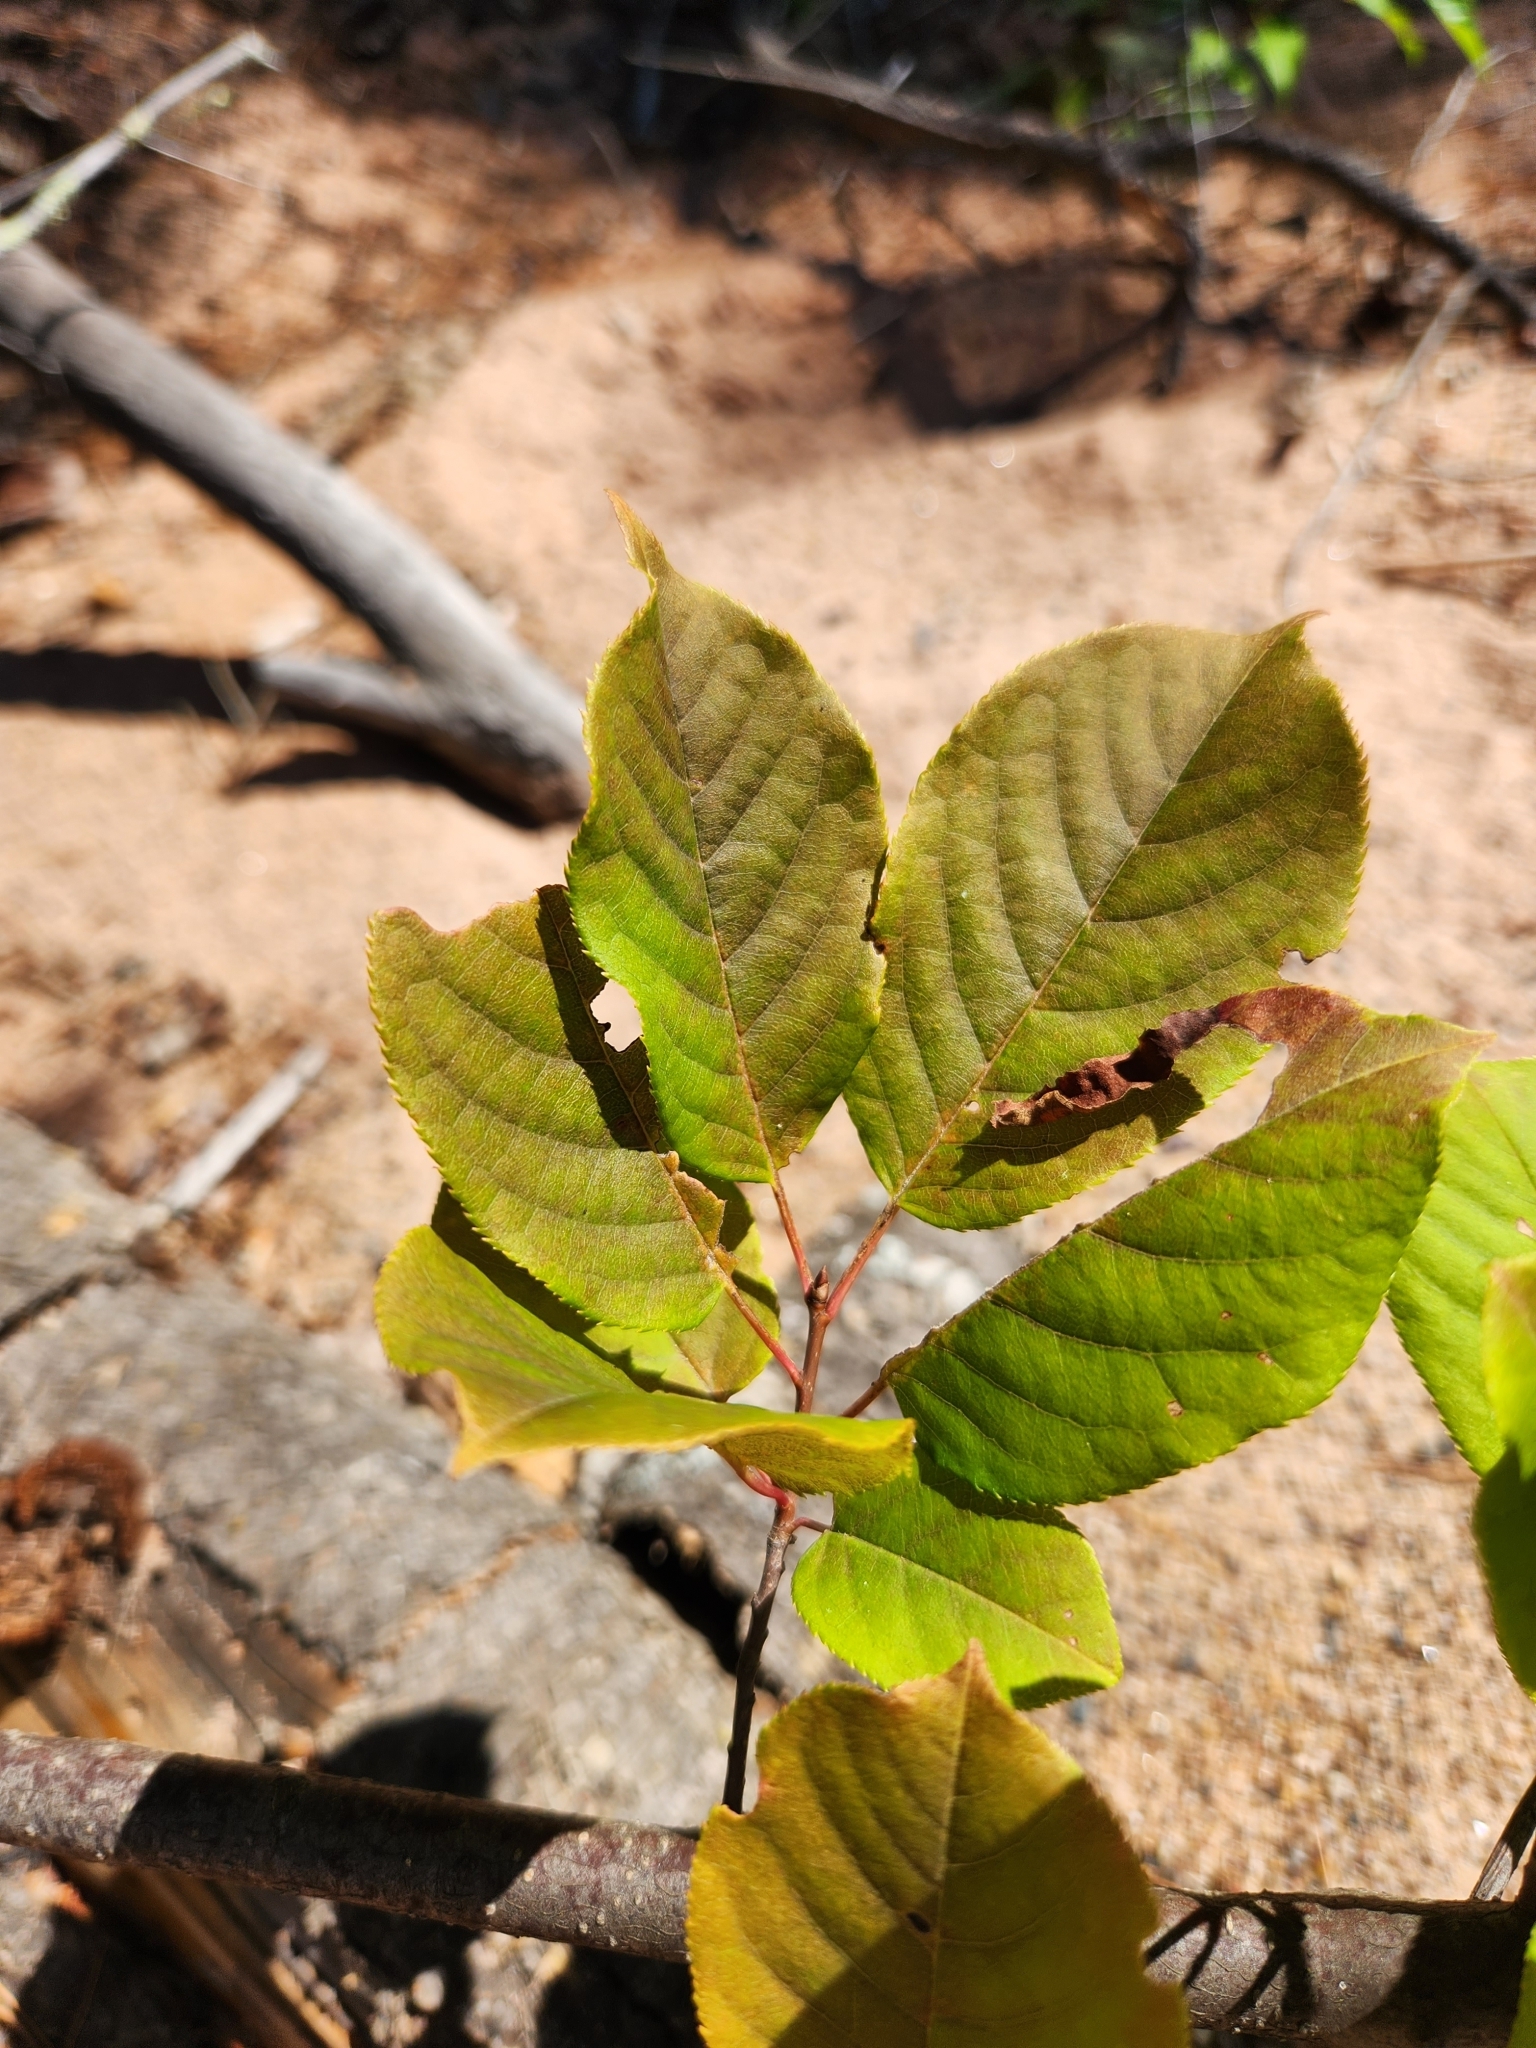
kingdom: Plantae
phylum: Tracheophyta
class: Magnoliopsida
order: Rosales
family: Rosaceae
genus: Prunus
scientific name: Prunus virginiana
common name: Chokecherry
